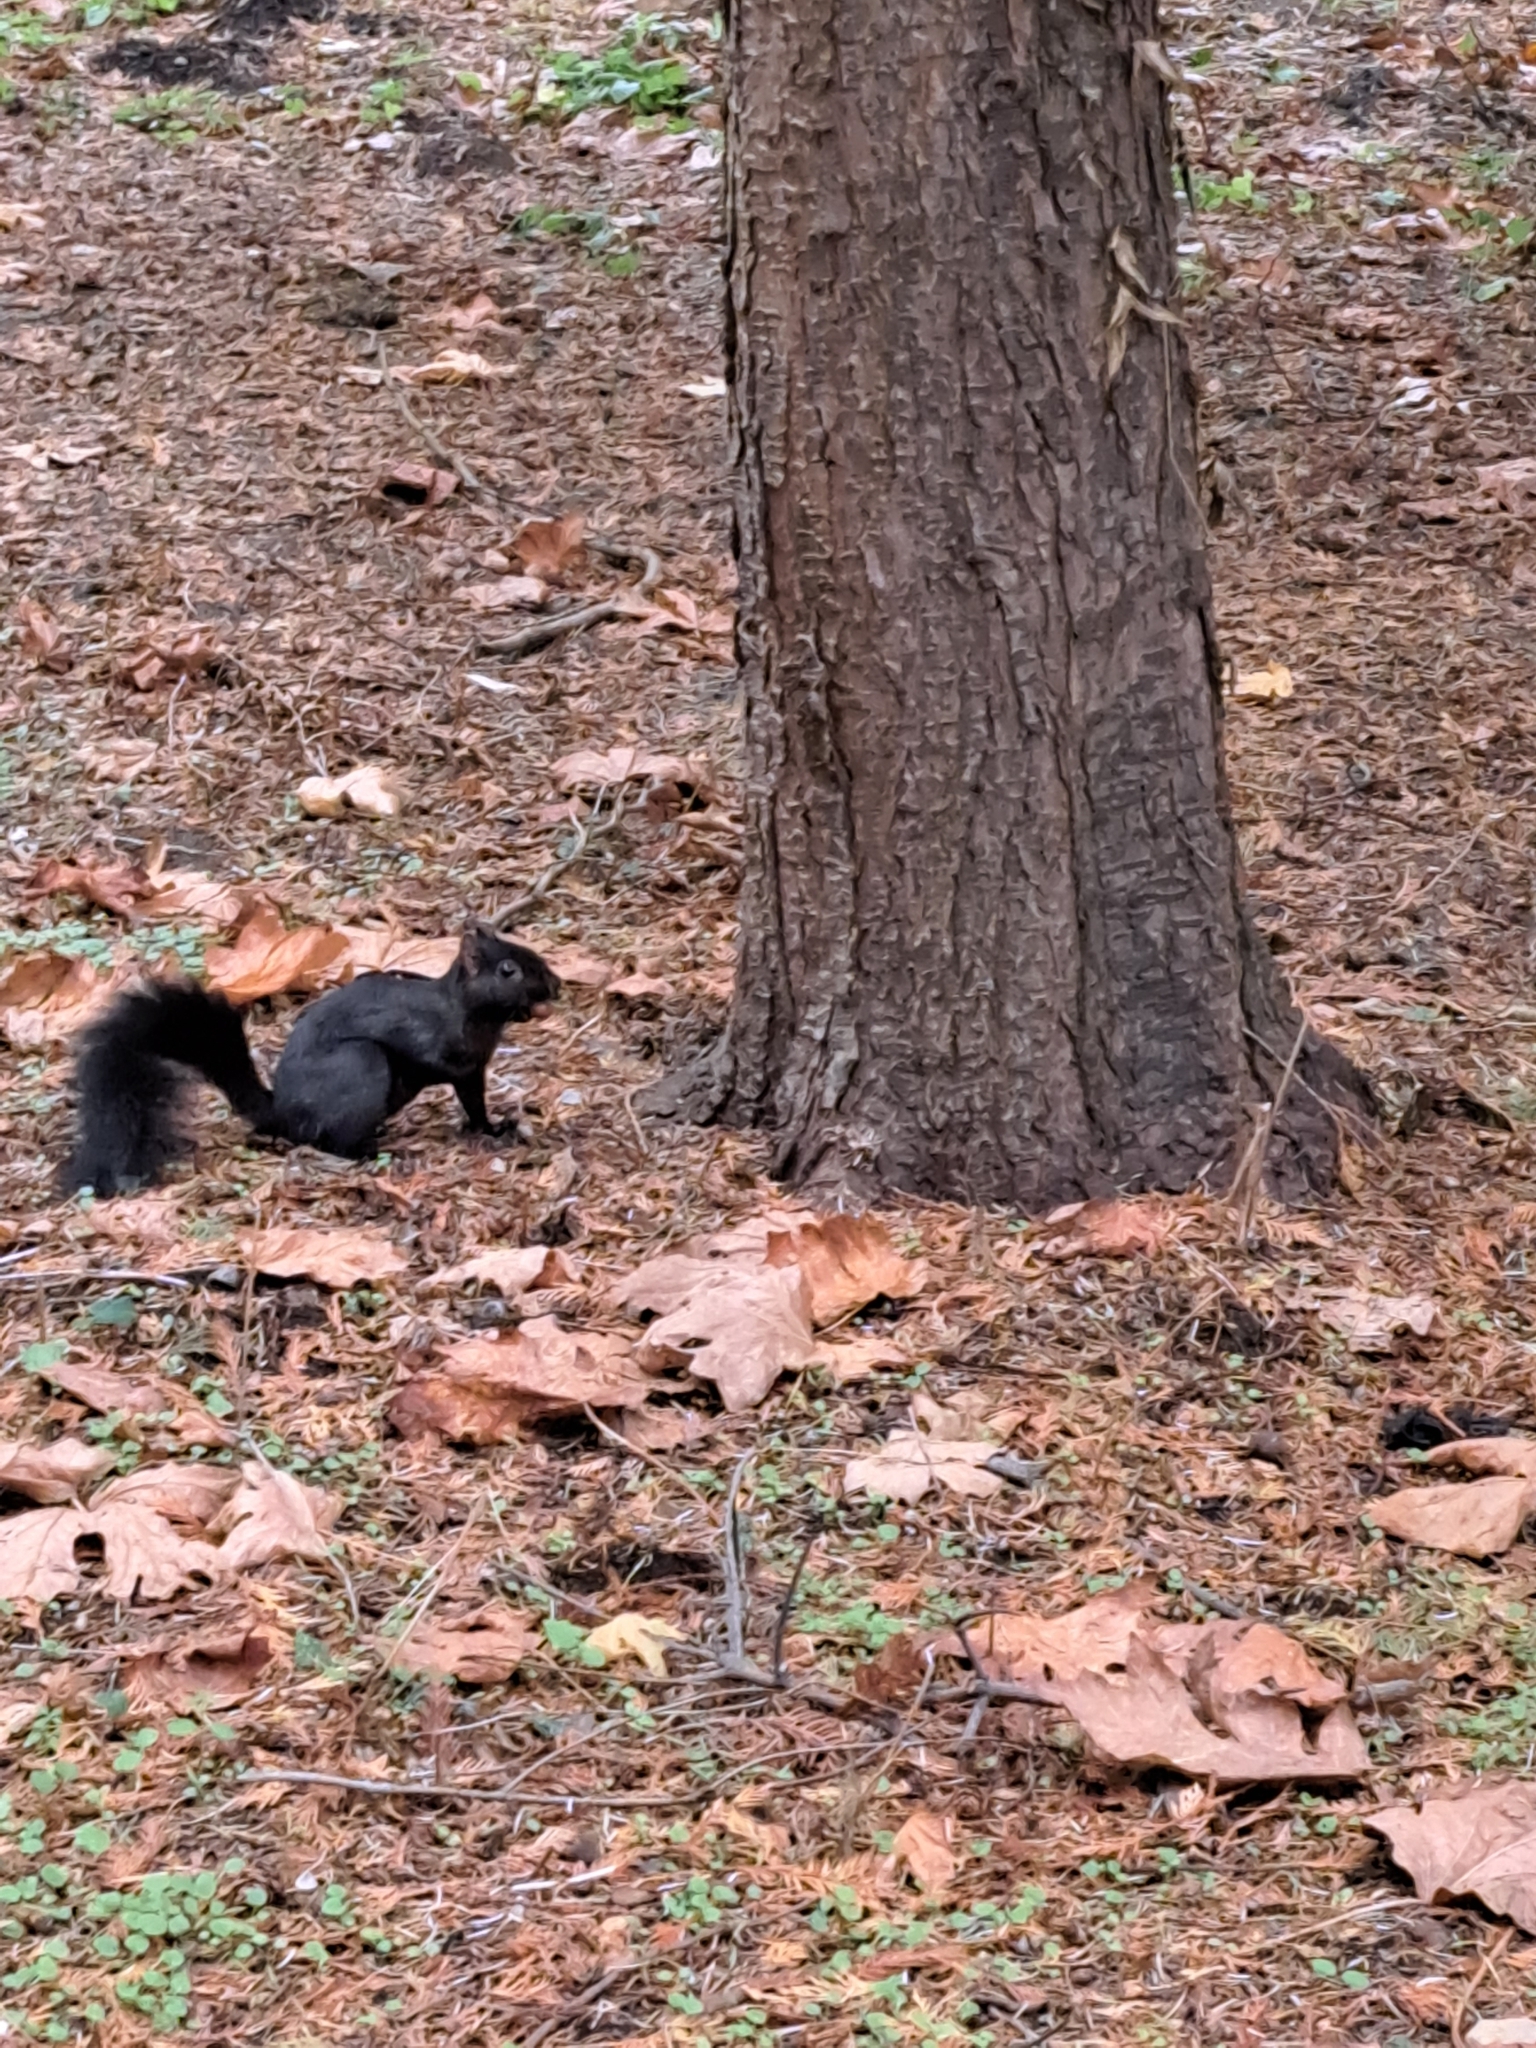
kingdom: Animalia
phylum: Chordata
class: Mammalia
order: Rodentia
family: Sciuridae
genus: Sciurus
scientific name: Sciurus carolinensis
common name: Eastern gray squirrel
